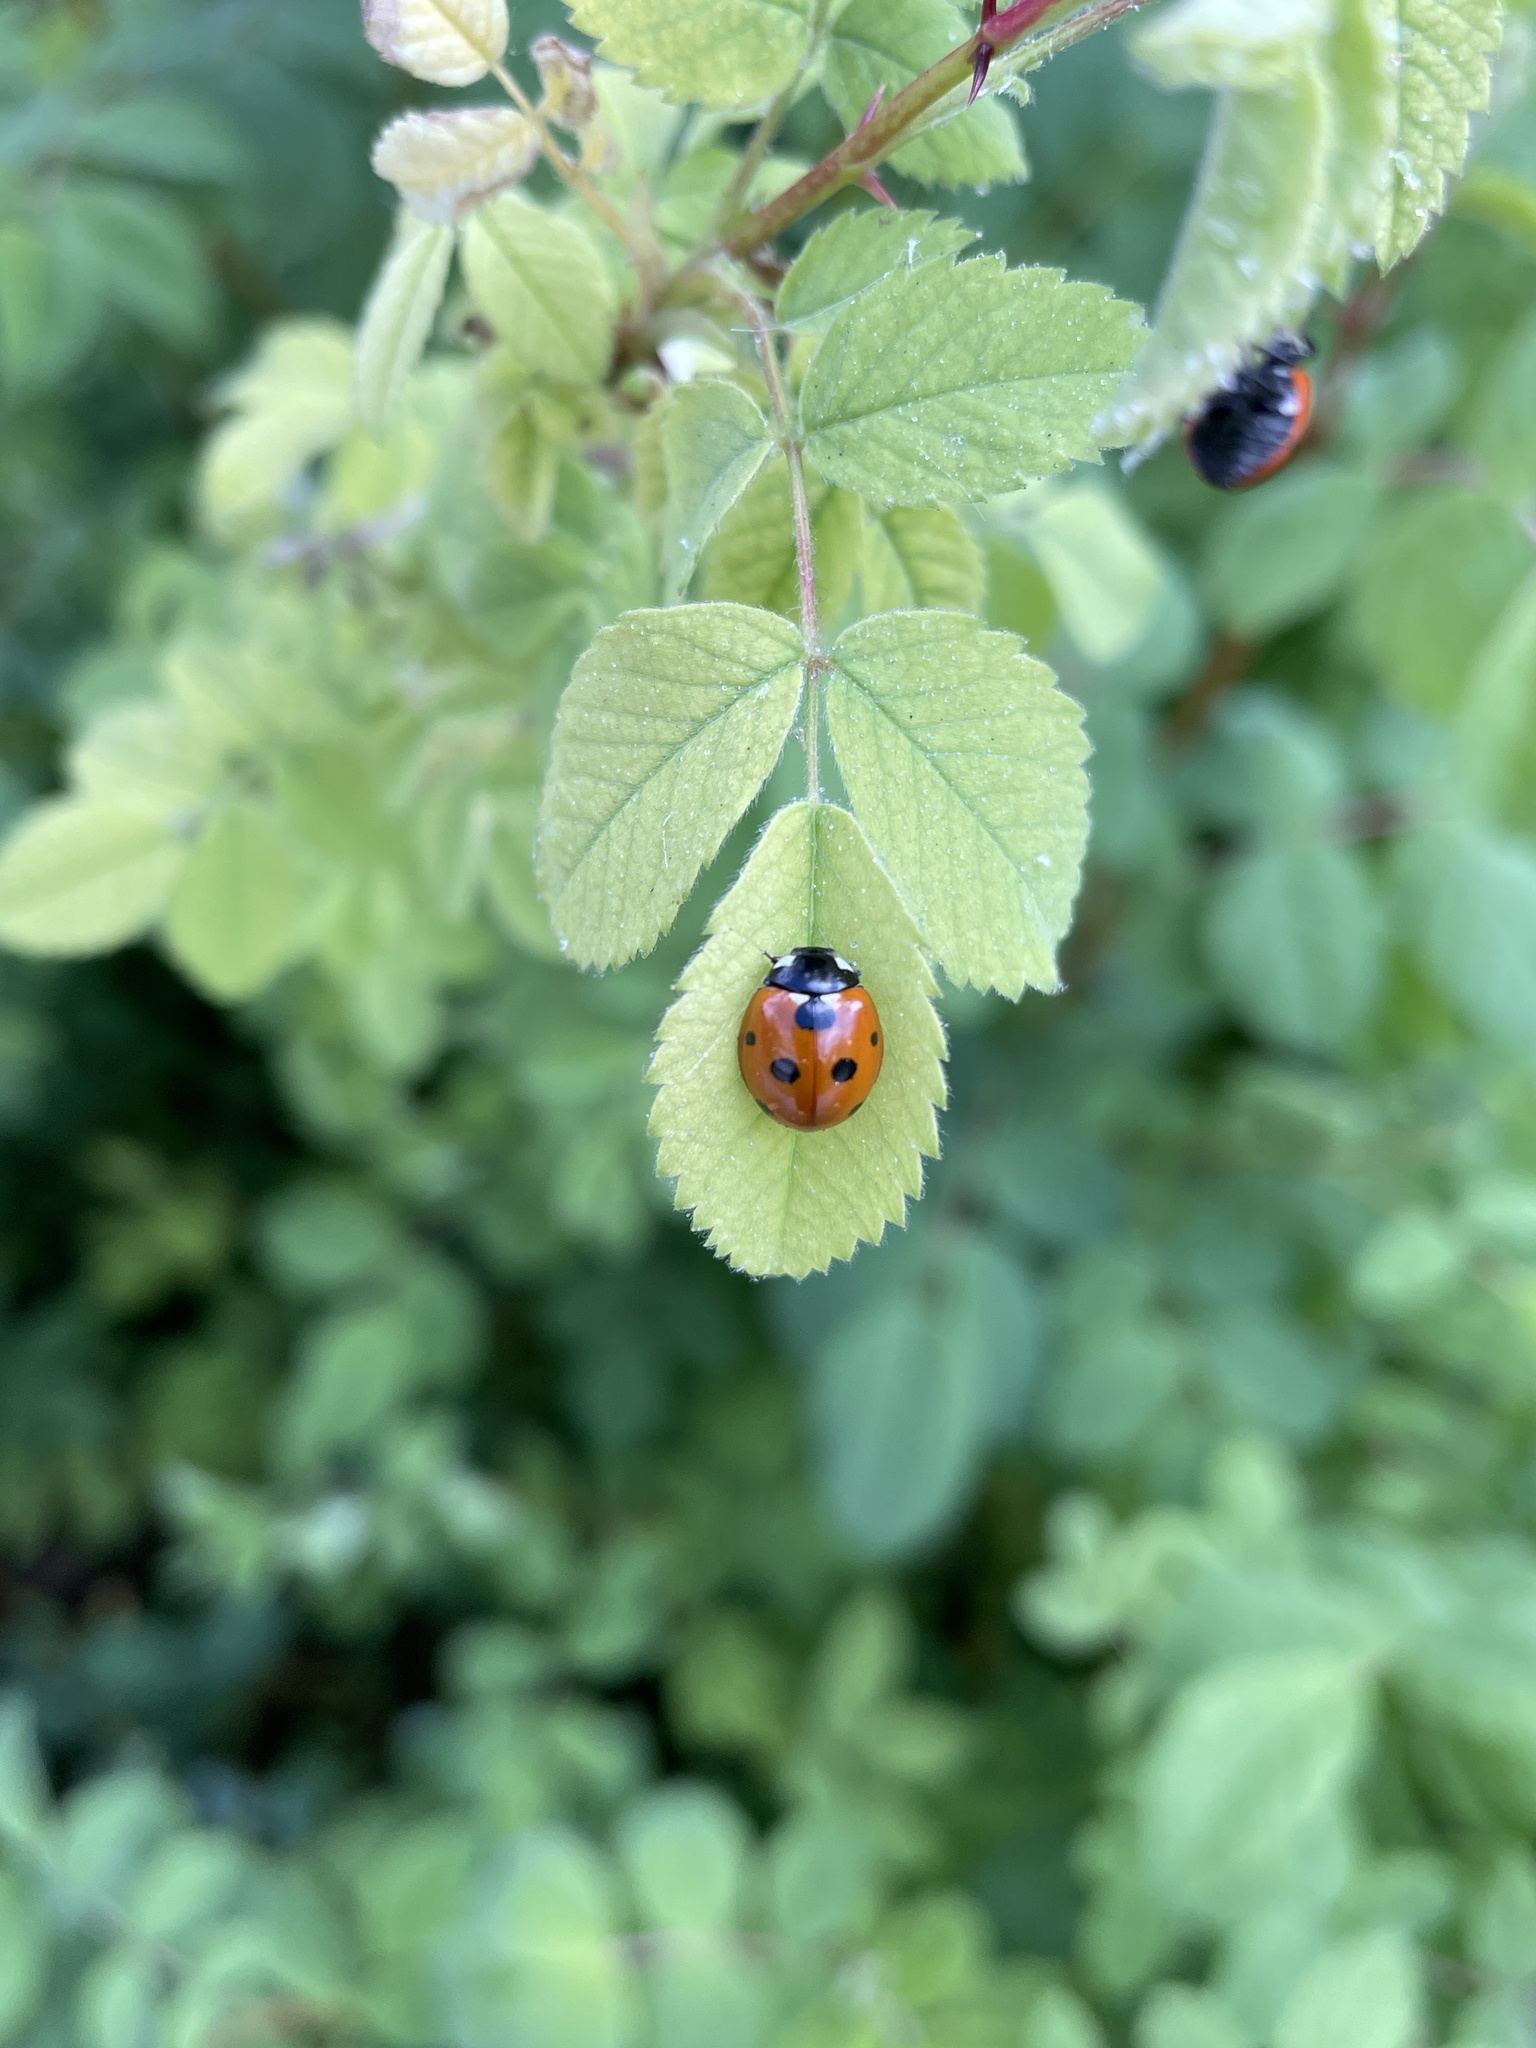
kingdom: Animalia
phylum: Arthropoda
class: Insecta
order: Coleoptera
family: Coccinellidae
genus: Coccinella
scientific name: Coccinella septempunctata
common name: Sevenspotted lady beetle
